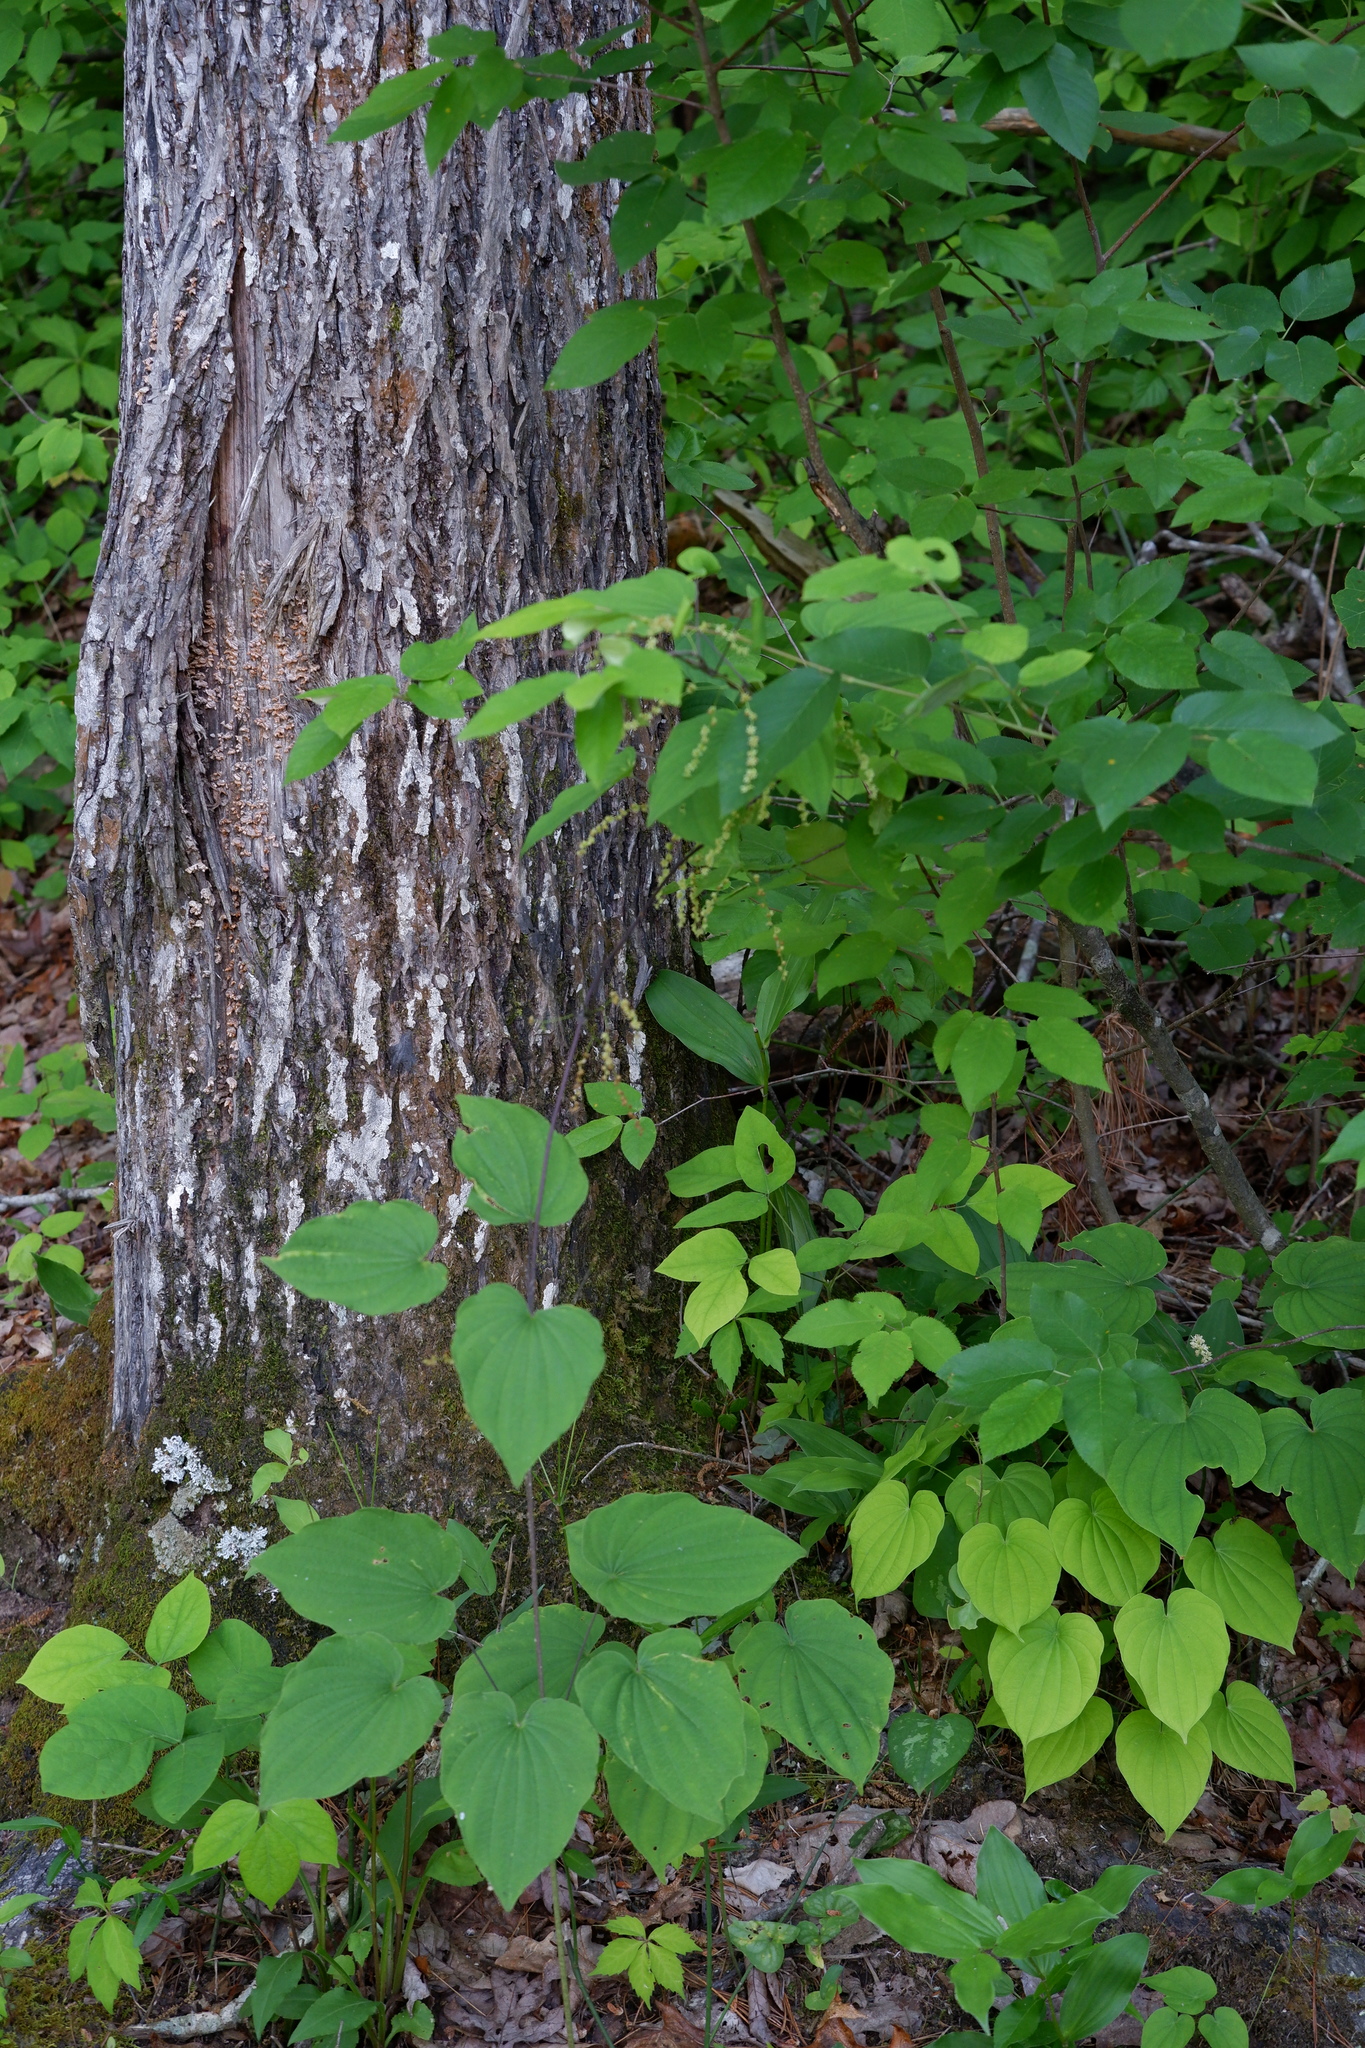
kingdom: Plantae
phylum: Tracheophyta
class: Liliopsida
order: Dioscoreales
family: Dioscoreaceae
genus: Dioscorea
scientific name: Dioscorea villosa
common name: Wild yam
